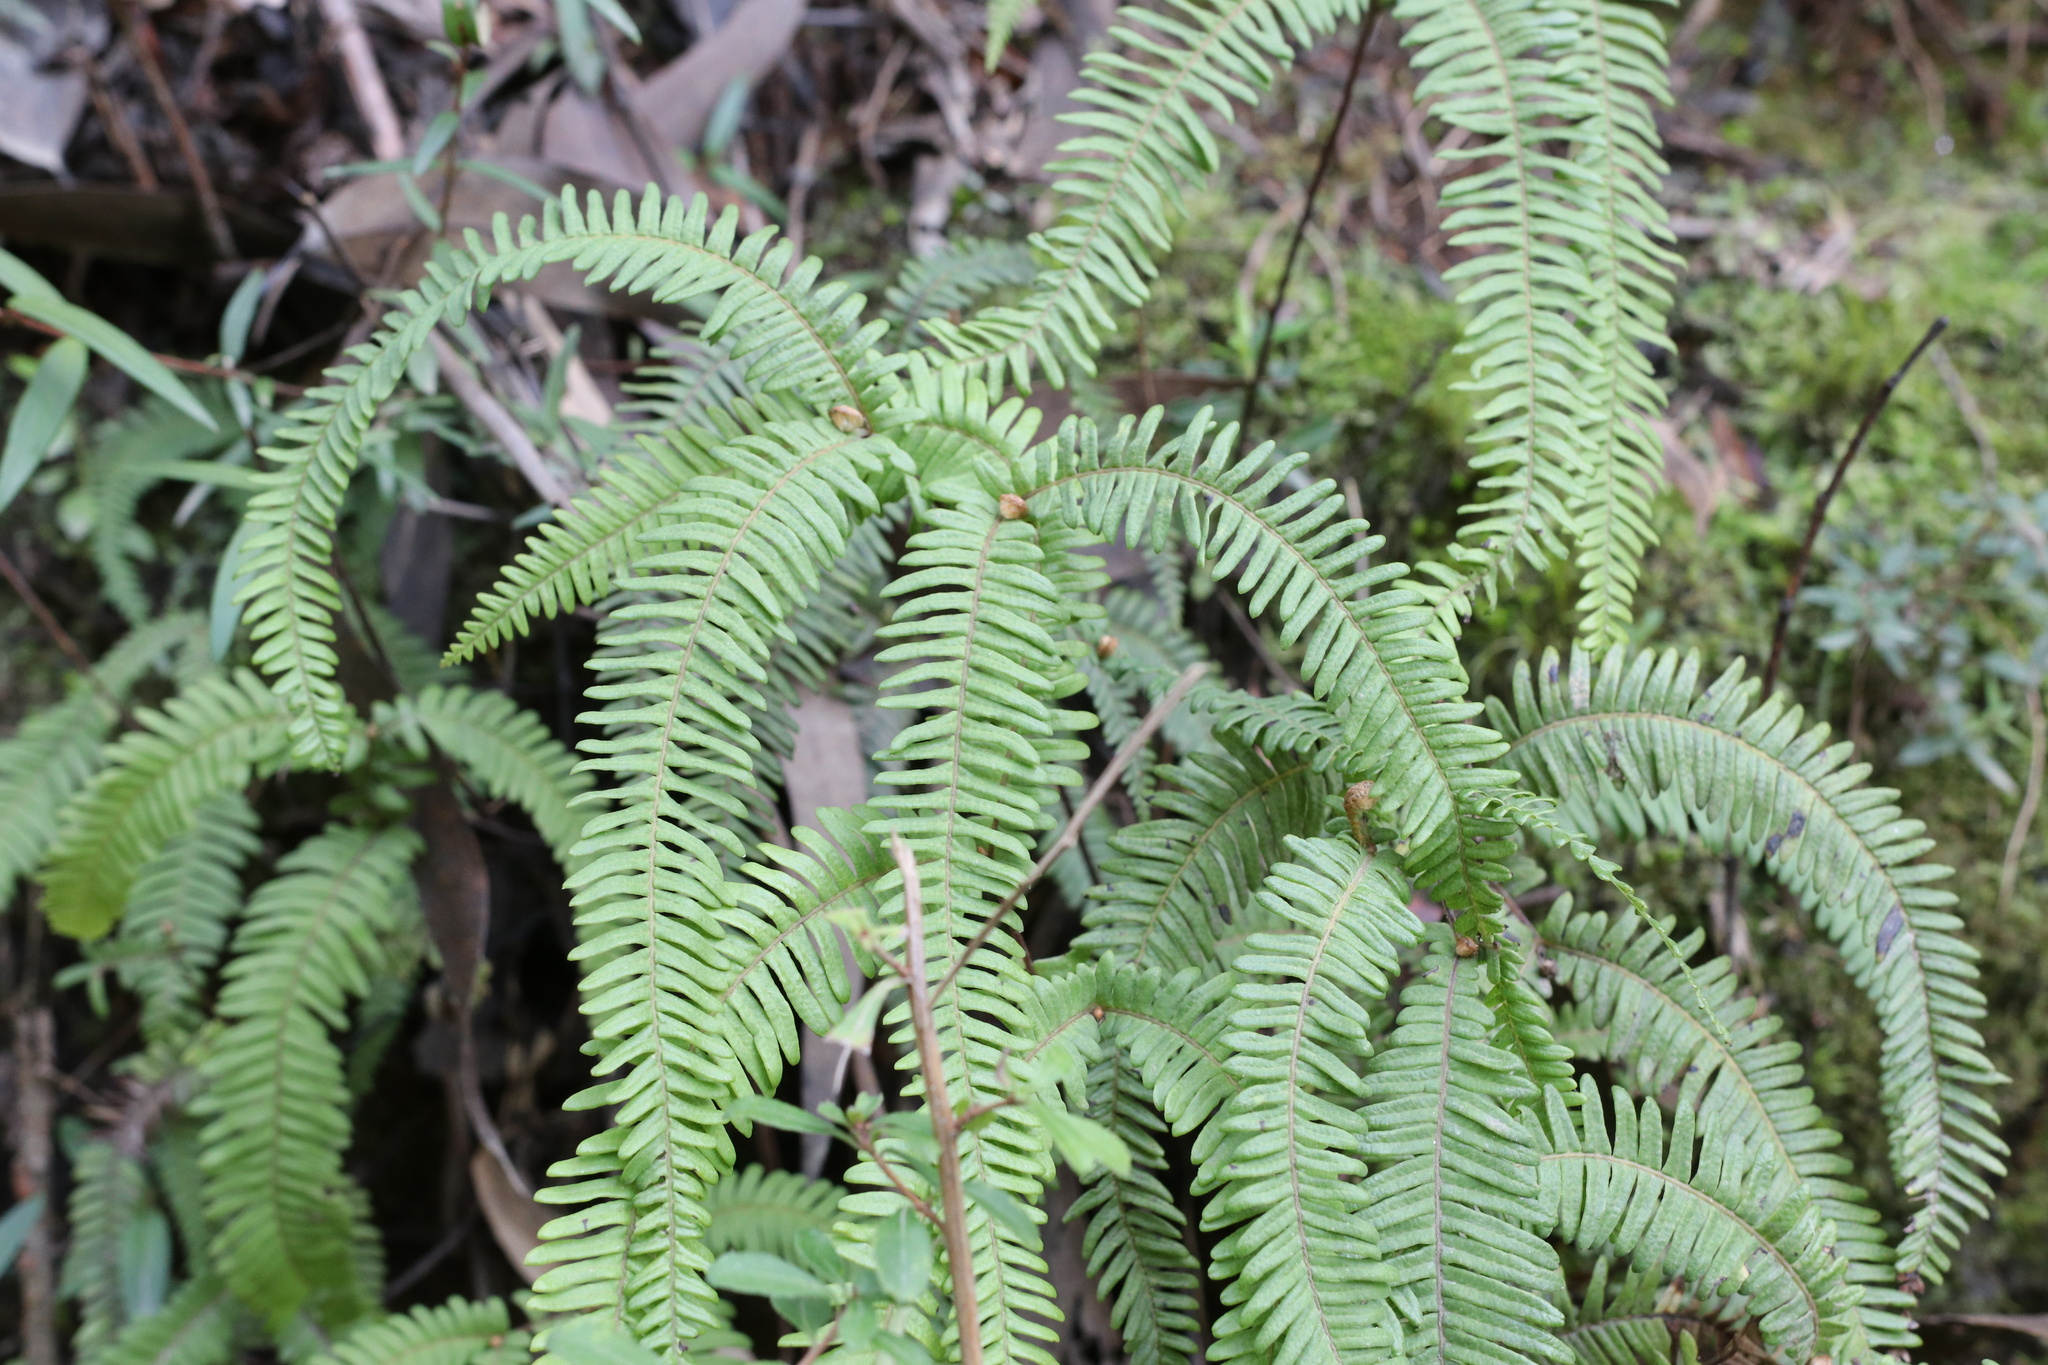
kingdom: Plantae
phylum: Tracheophyta
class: Polypodiopsida
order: Gleicheniales
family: Gleicheniaceae
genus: Sticherus
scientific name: Sticherus squamulosus
